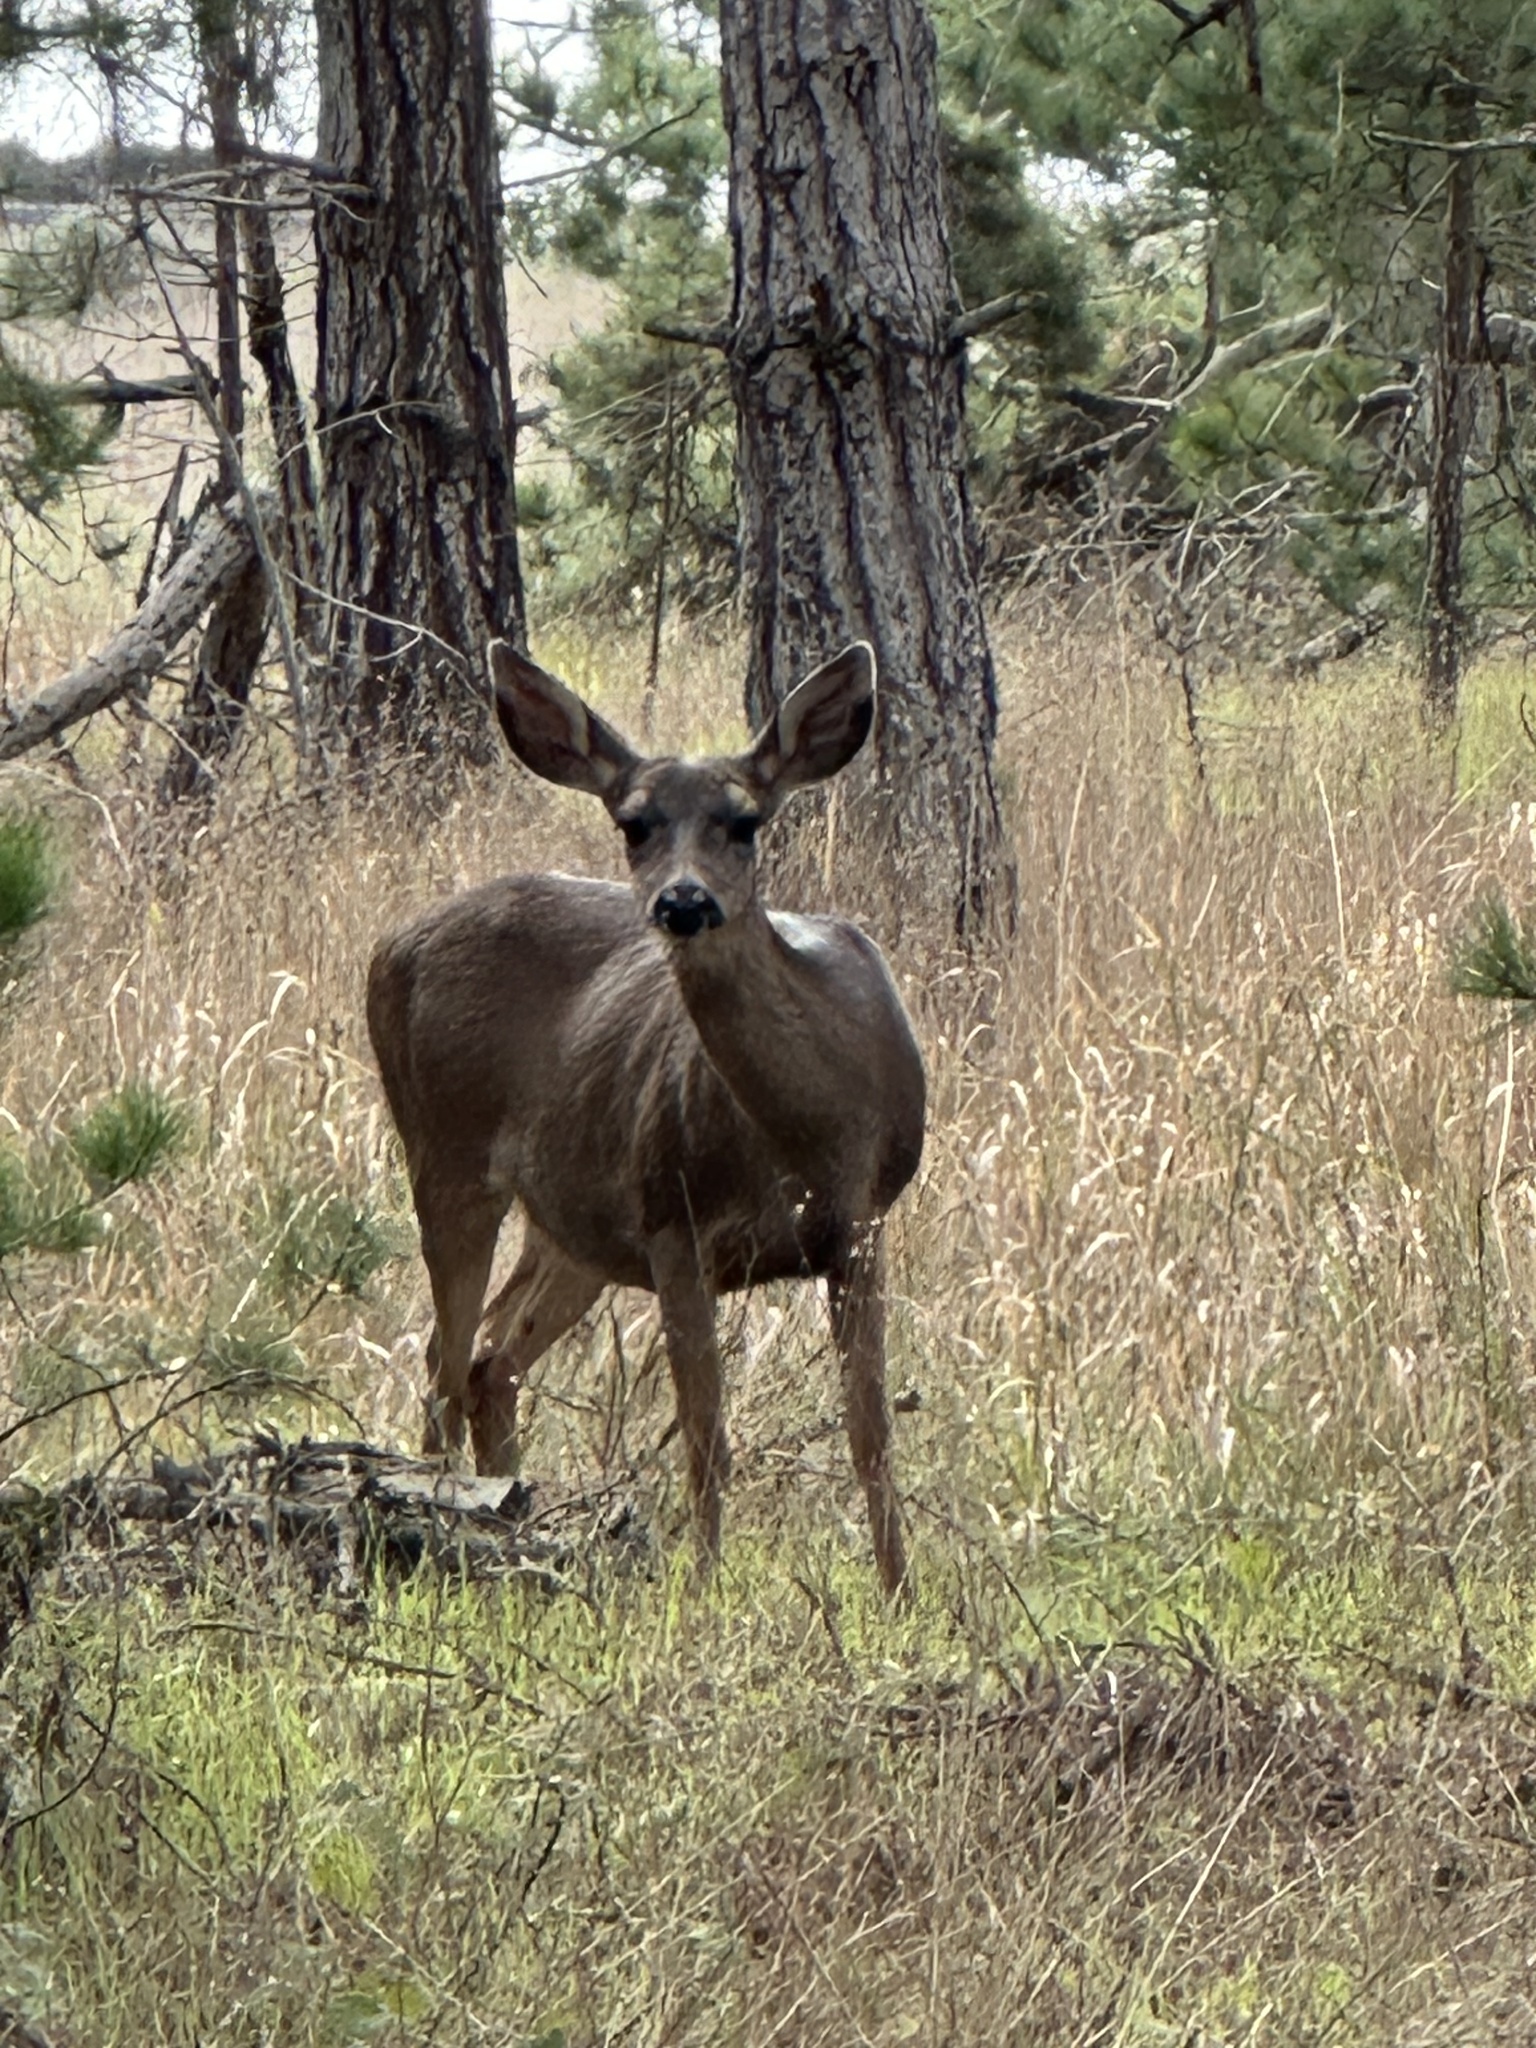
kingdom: Animalia
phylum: Chordata
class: Mammalia
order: Artiodactyla
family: Cervidae
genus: Odocoileus
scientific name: Odocoileus hemionus
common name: Mule deer
